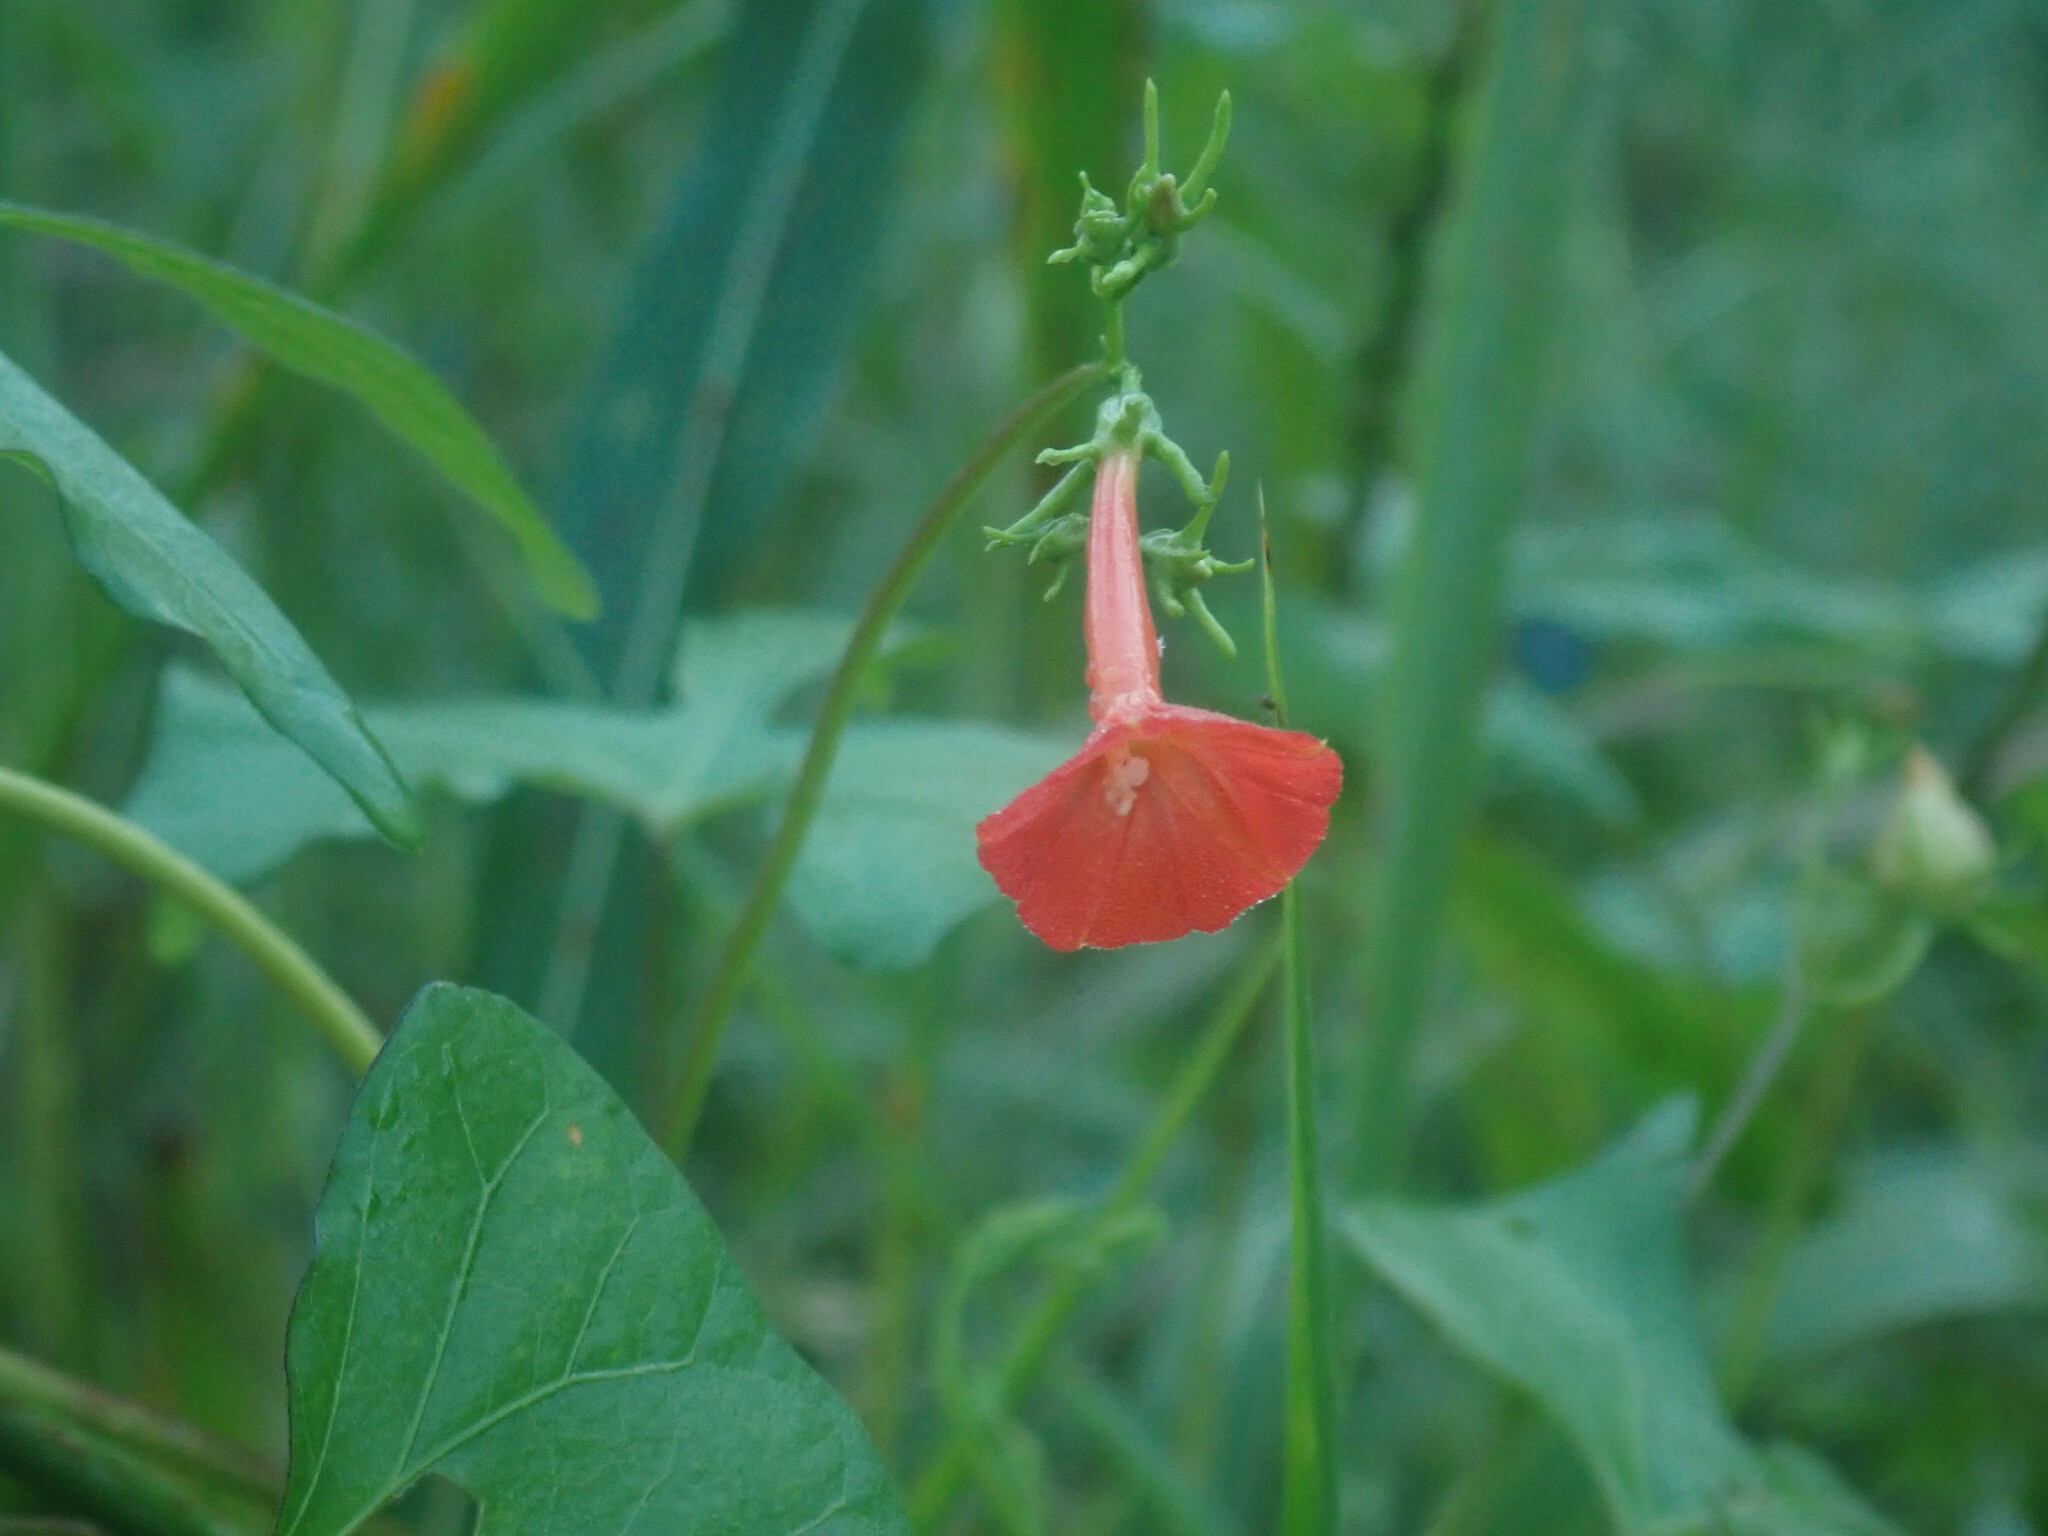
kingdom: Plantae
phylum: Tracheophyta
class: Magnoliopsida
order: Solanales
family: Convolvulaceae
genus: Ipomoea
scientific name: Ipomoea cristulata
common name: Trans-pecos morning-glory
